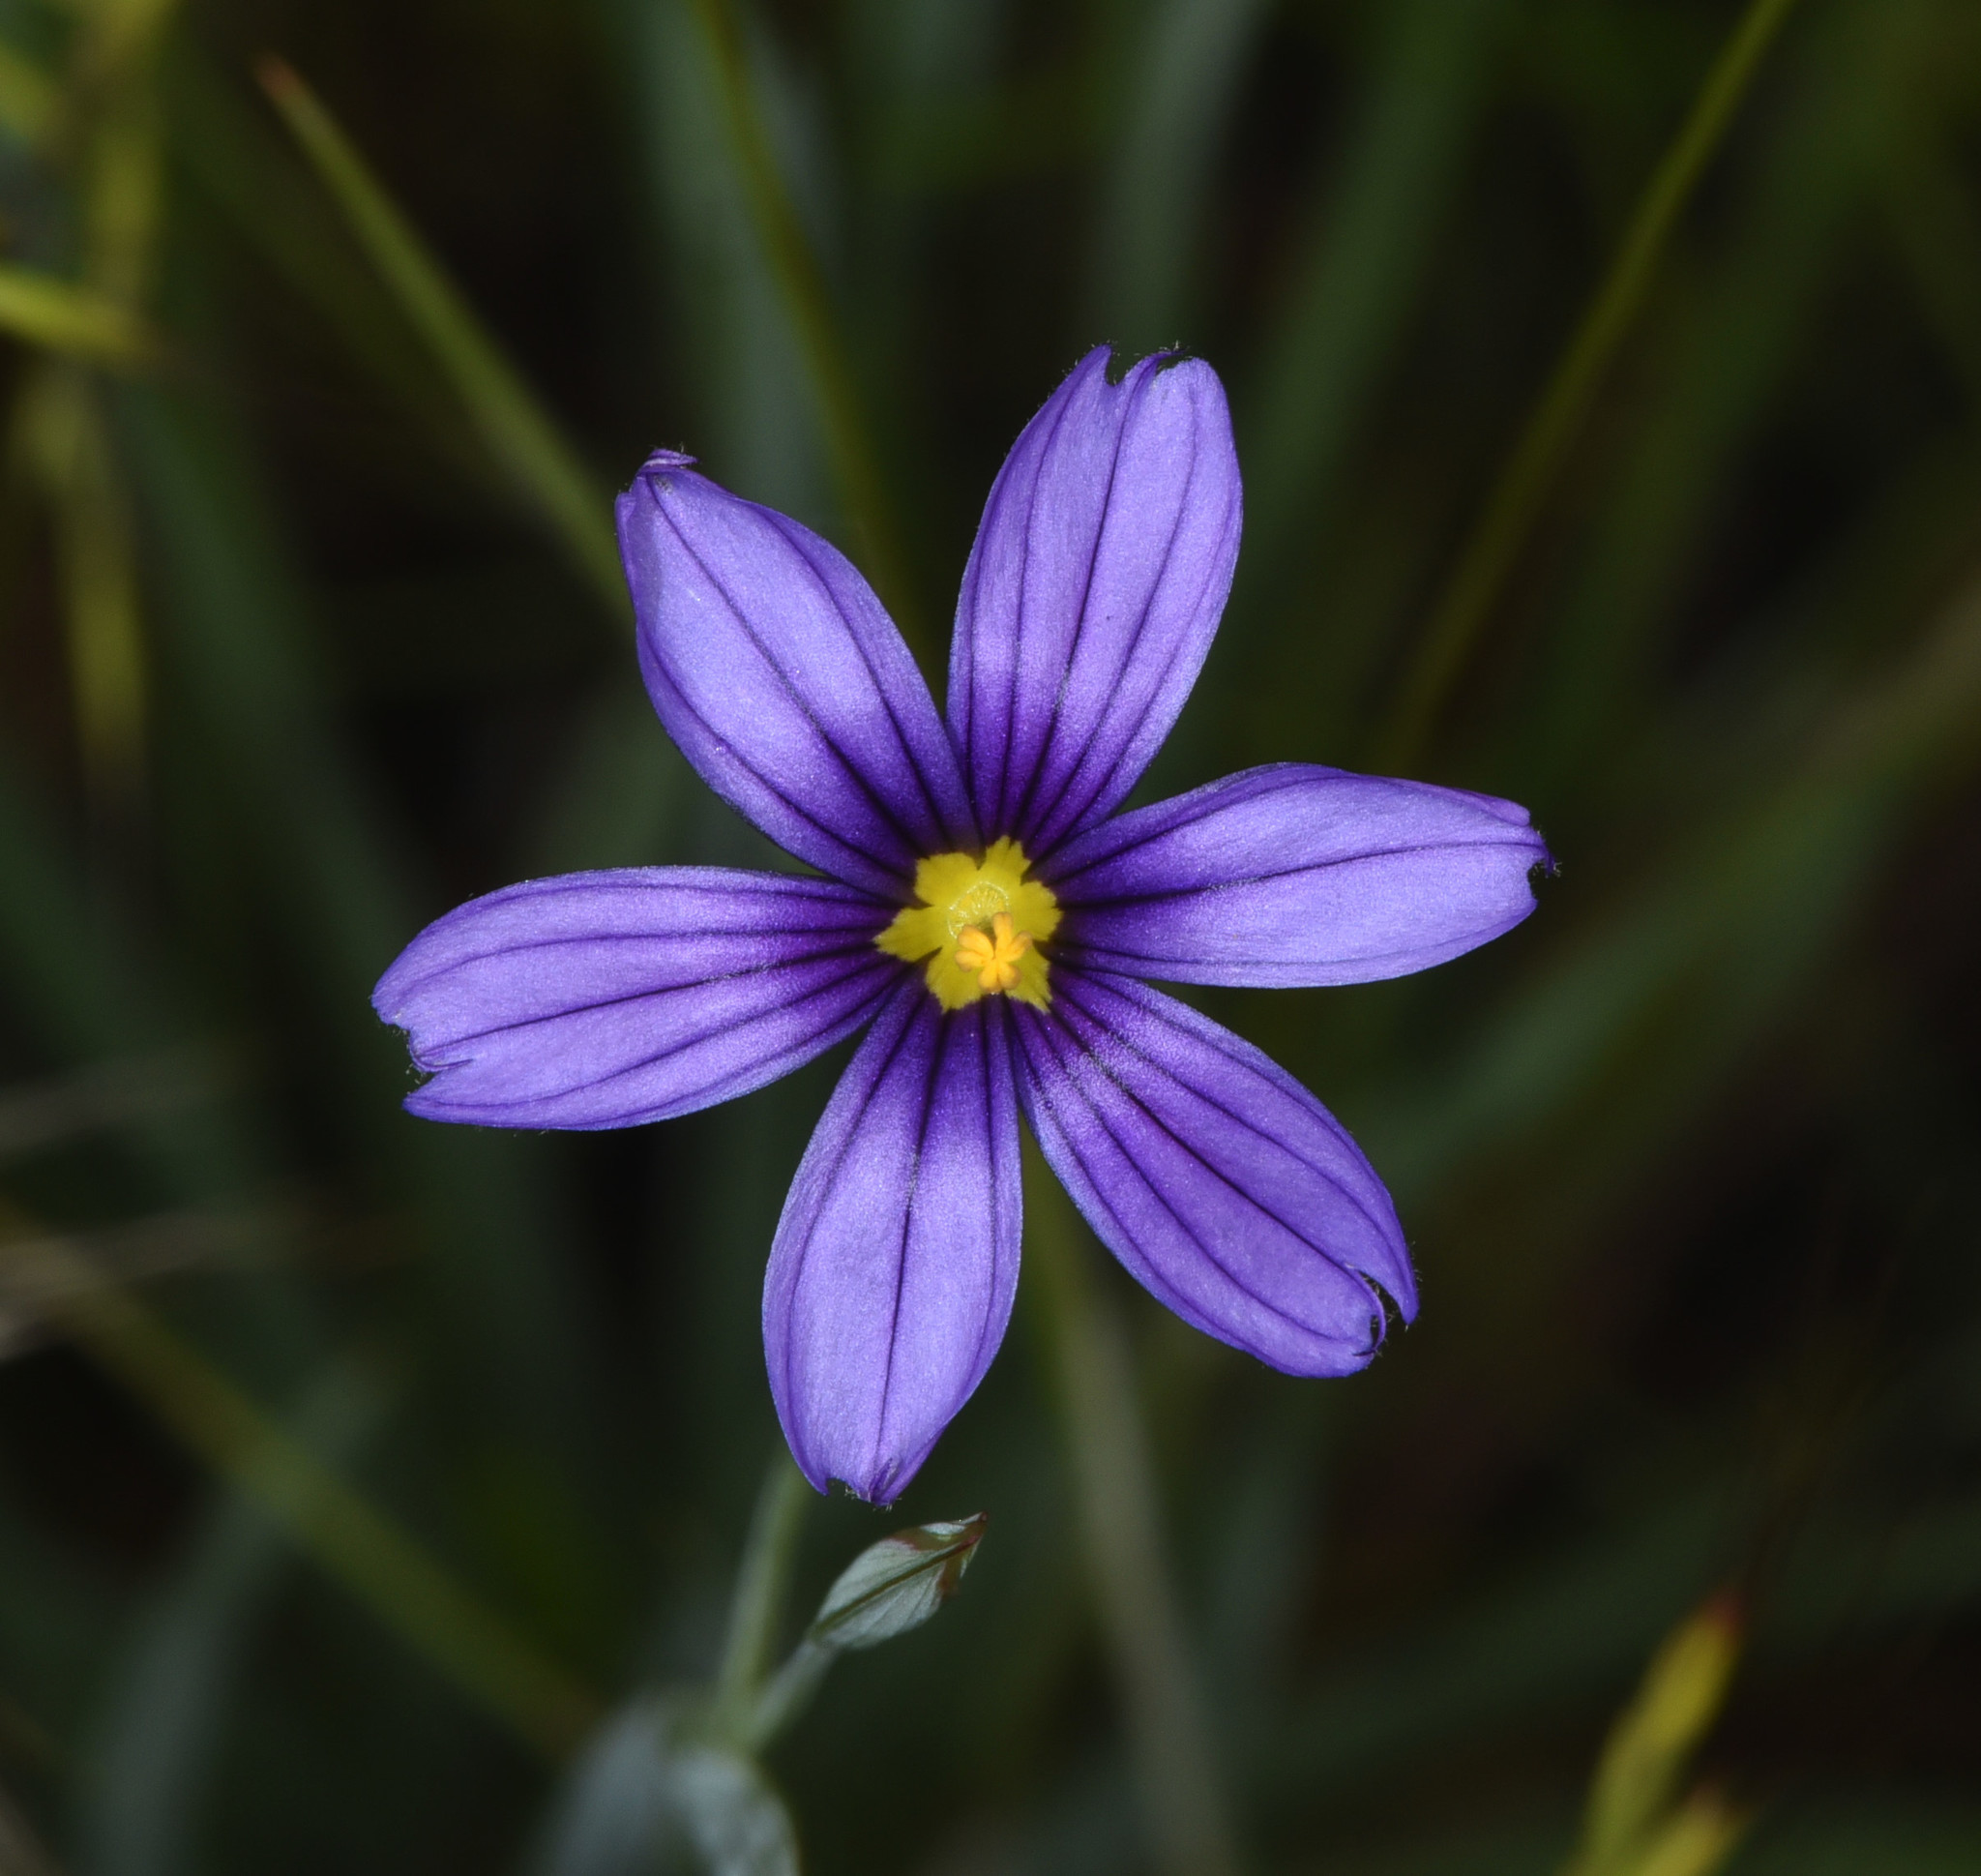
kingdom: Plantae
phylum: Tracheophyta
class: Liliopsida
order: Asparagales
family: Iridaceae
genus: Sisyrinchium
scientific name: Sisyrinchium bellum
